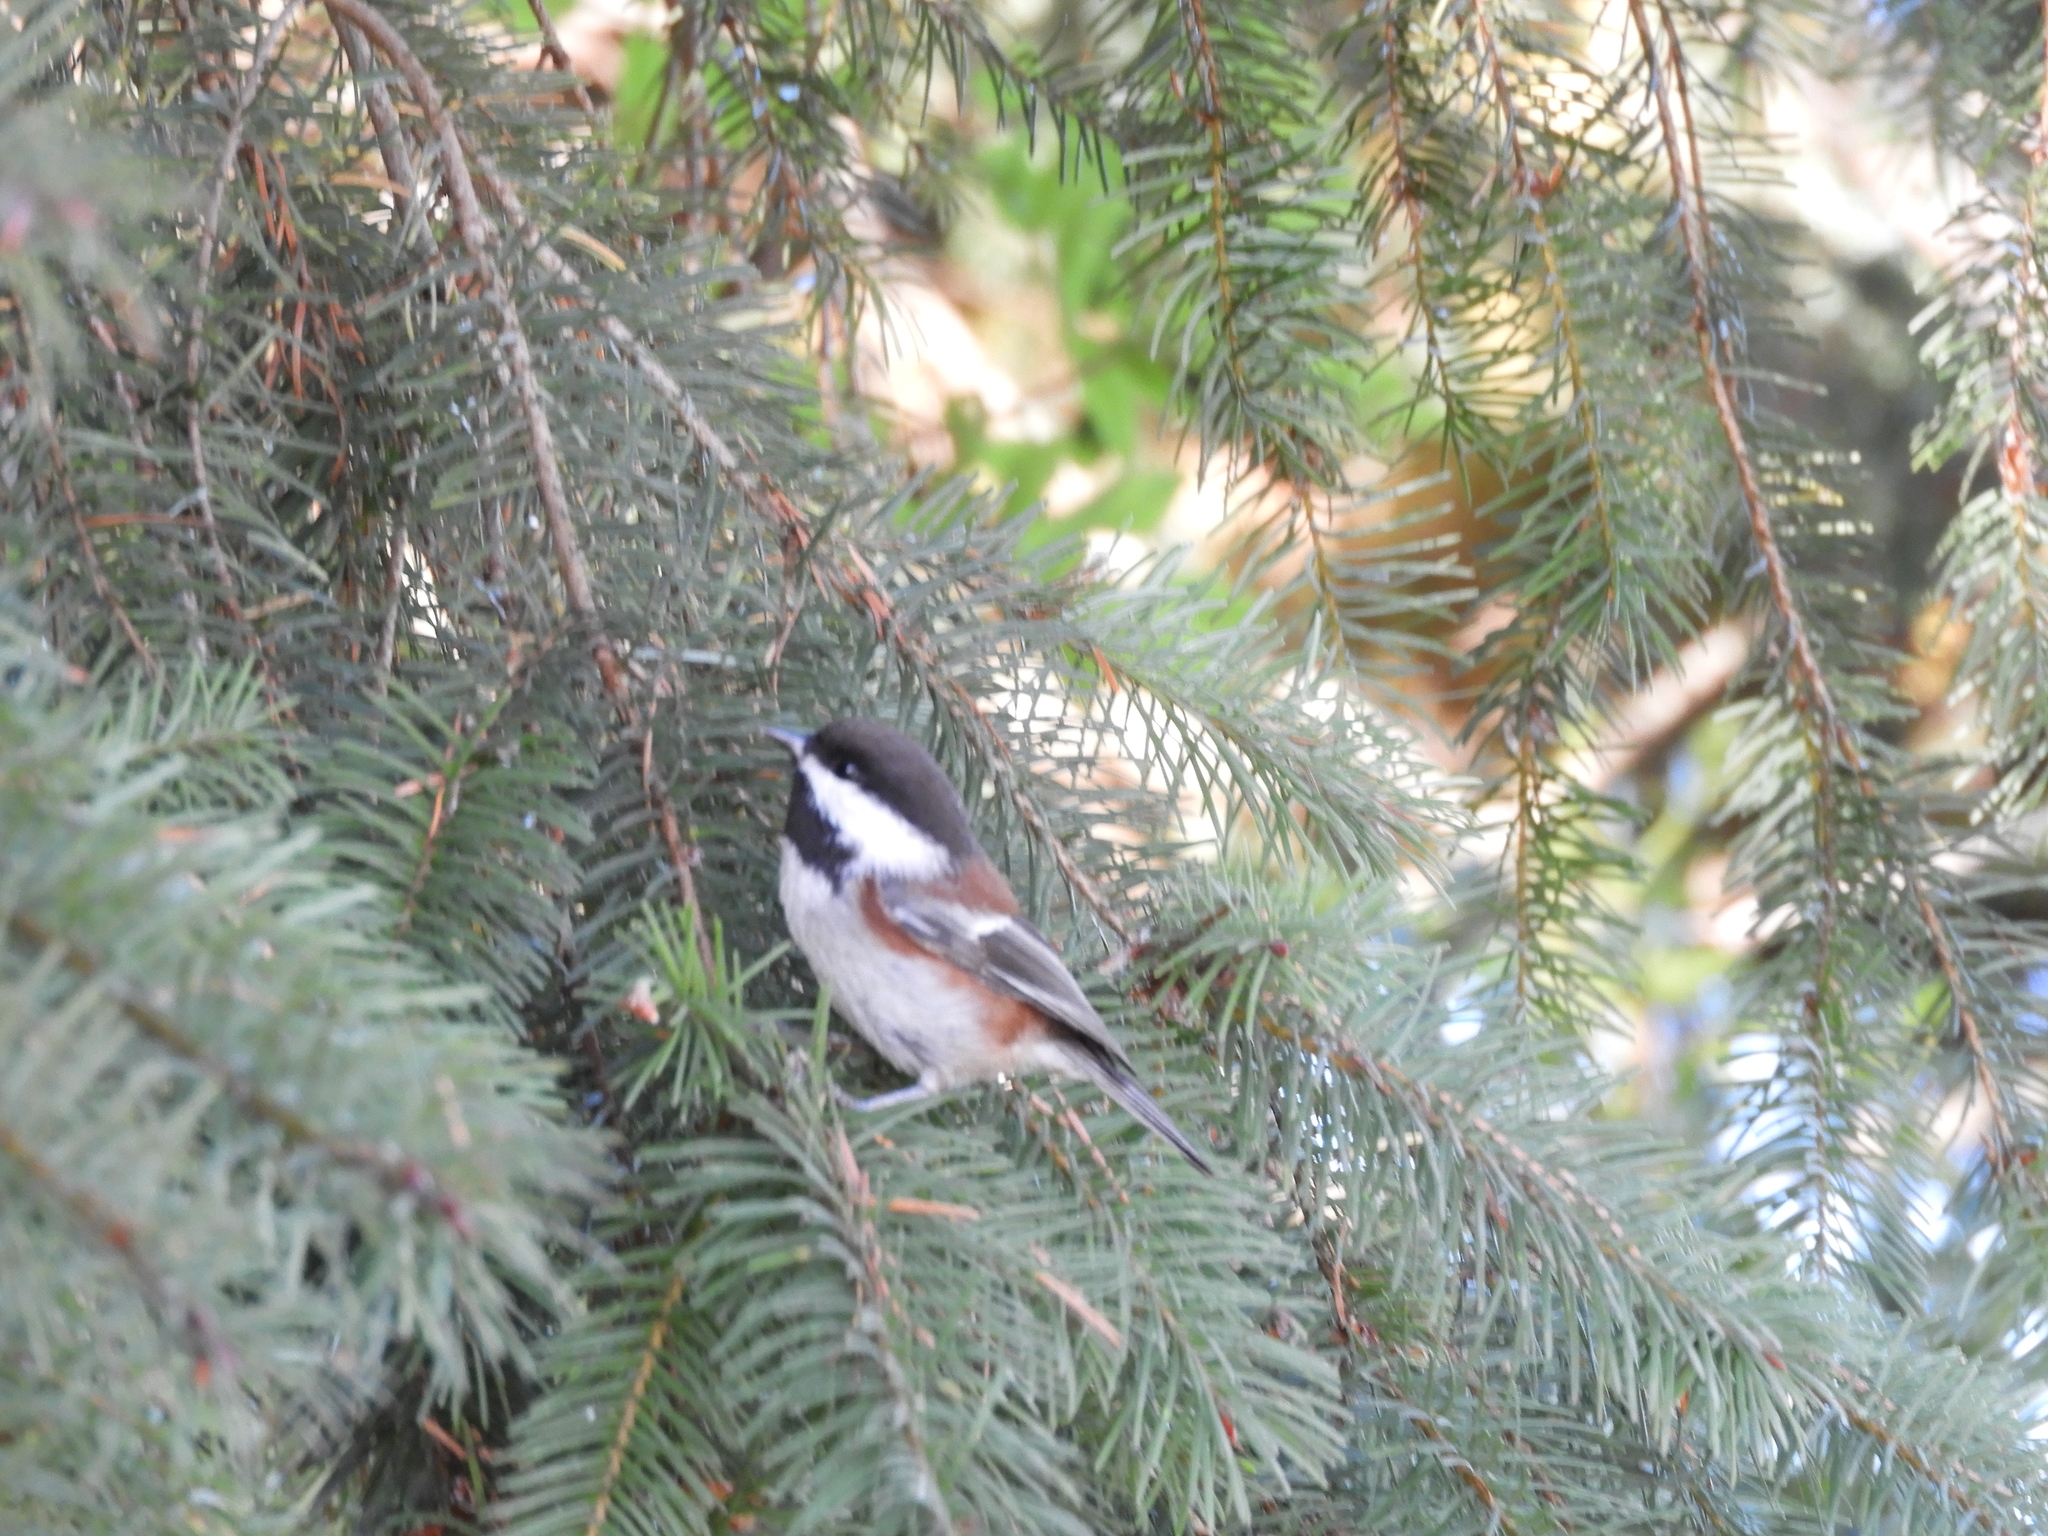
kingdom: Animalia
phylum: Chordata
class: Aves
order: Passeriformes
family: Paridae
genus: Poecile
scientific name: Poecile rufescens
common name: Chestnut-backed chickadee
